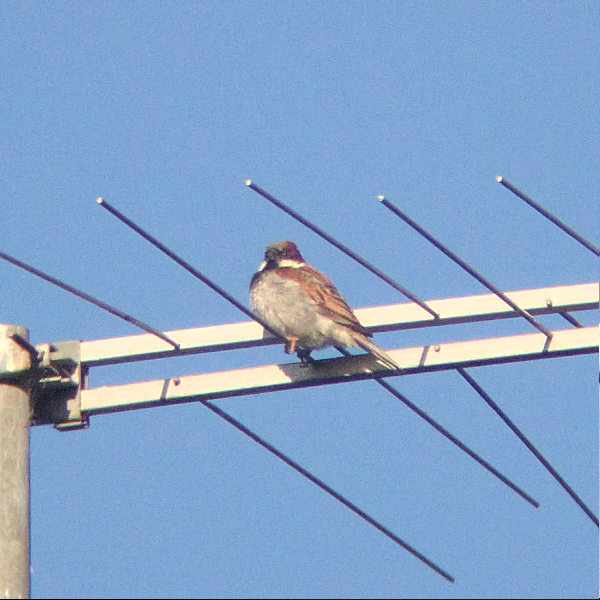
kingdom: Animalia
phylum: Chordata
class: Aves
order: Passeriformes
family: Passeridae
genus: Passer
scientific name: Passer domesticus
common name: House sparrow
